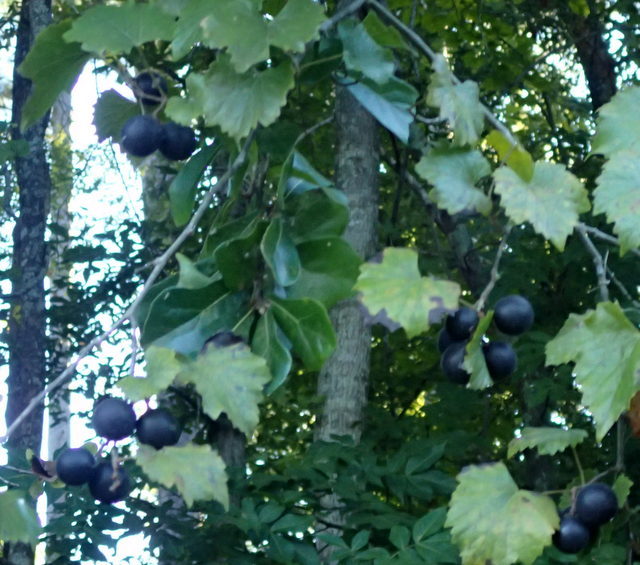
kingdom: Plantae
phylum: Tracheophyta
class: Magnoliopsida
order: Vitales
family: Vitaceae
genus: Vitis
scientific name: Vitis rotundifolia
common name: Muscadine grape
